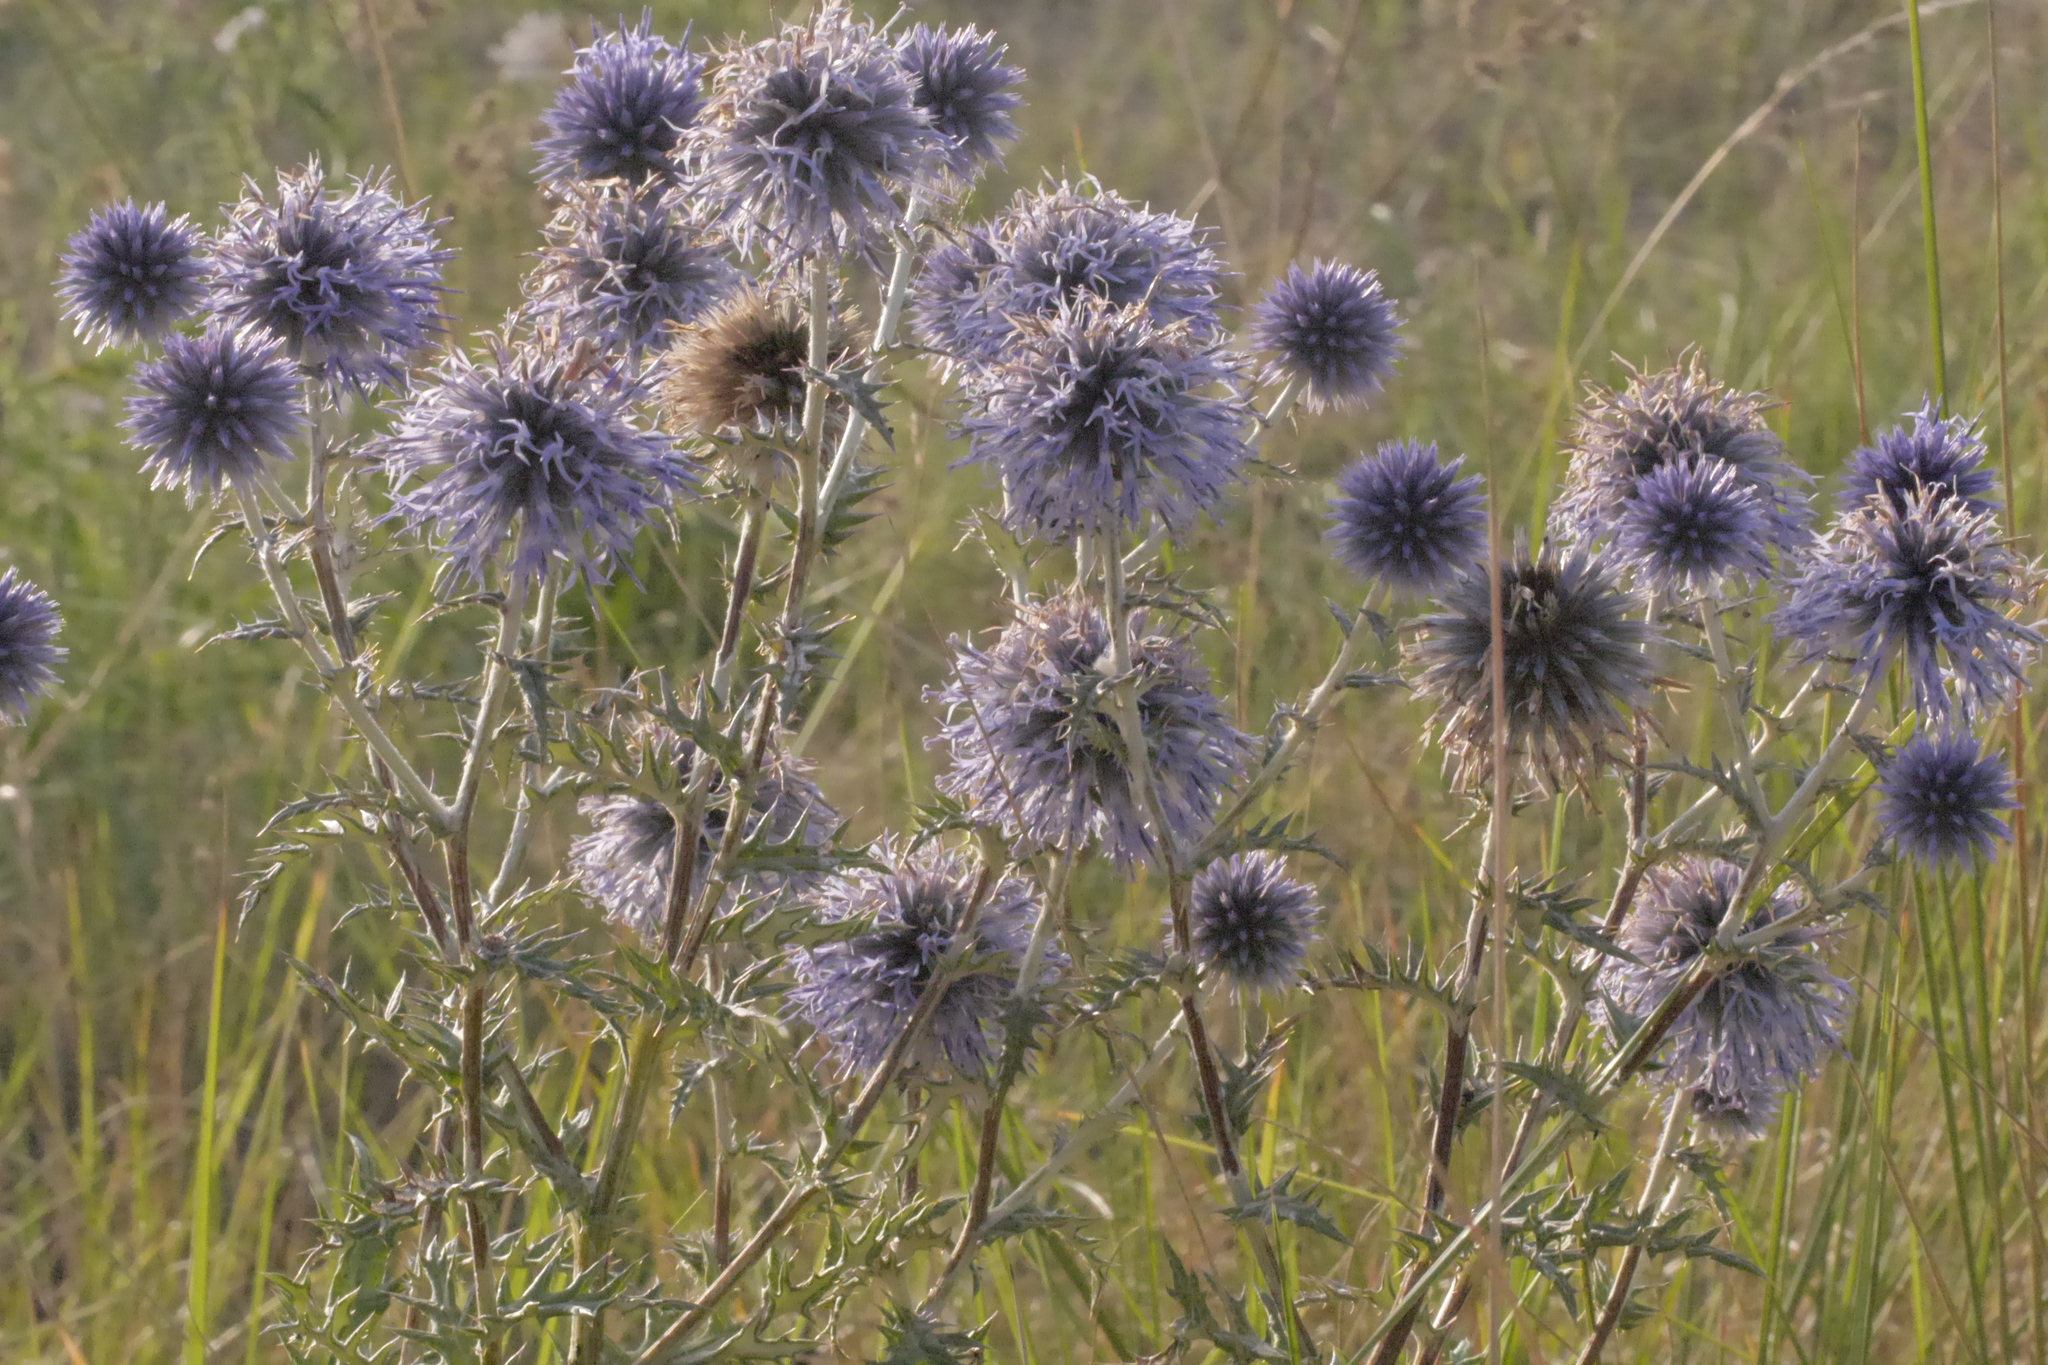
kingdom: Plantae
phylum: Tracheophyta
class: Magnoliopsida
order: Asterales
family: Asteraceae
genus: Echinops
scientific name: Echinops ritro
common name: Globe thistle
